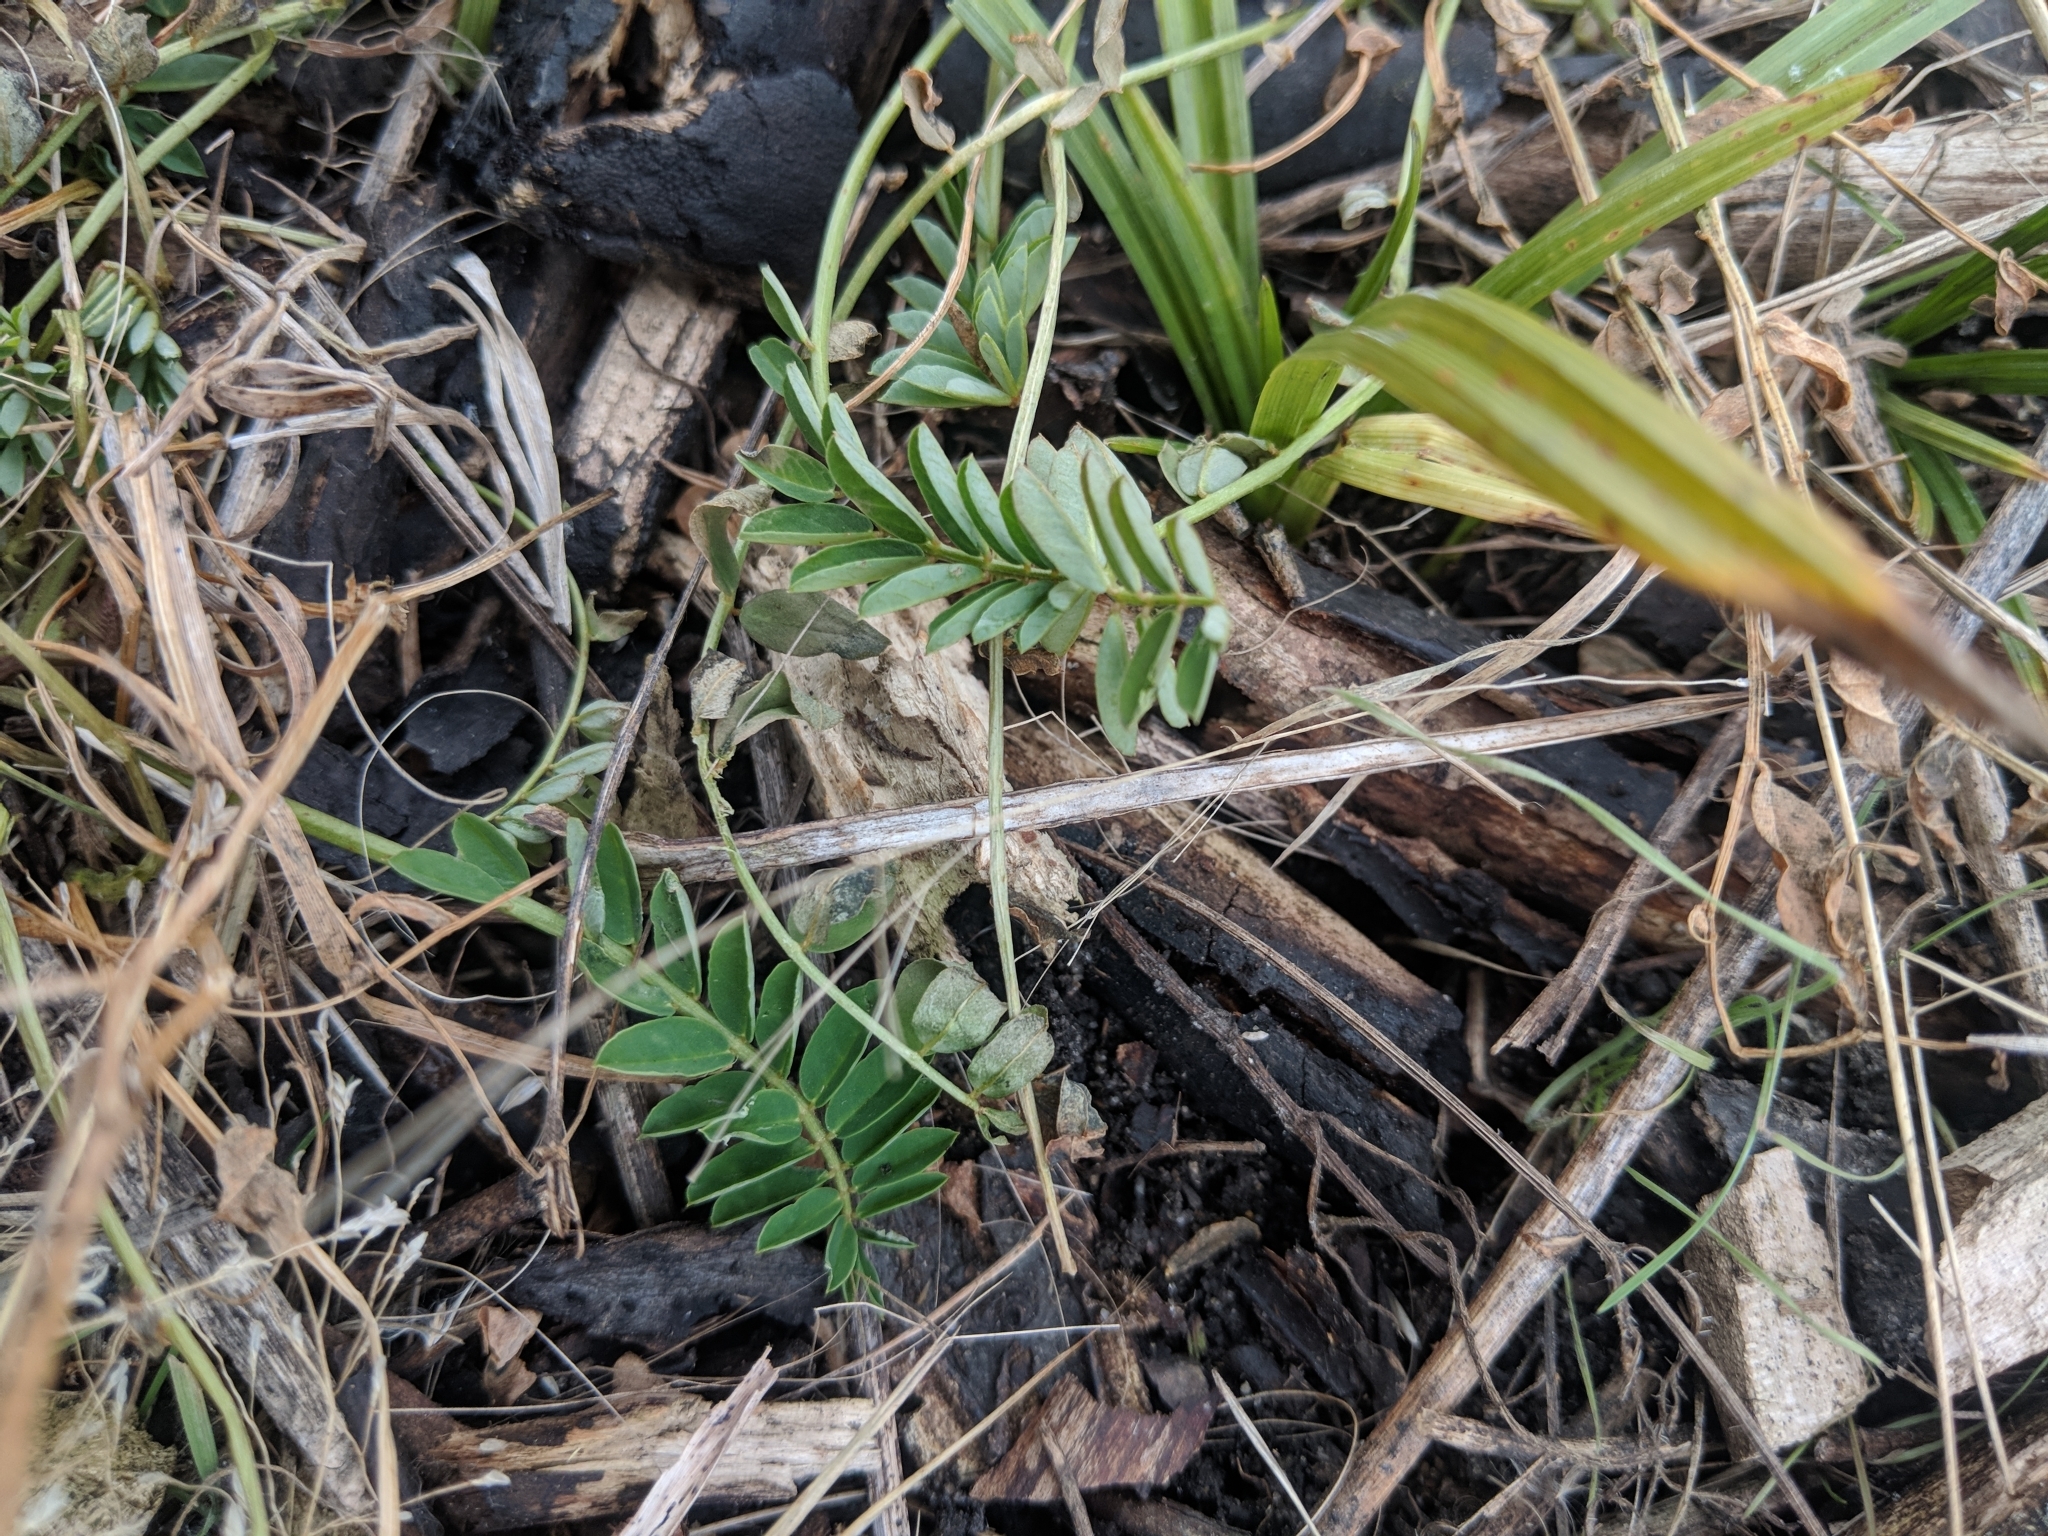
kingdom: Plantae
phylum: Tracheophyta
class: Magnoliopsida
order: Fabales
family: Fabaceae
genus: Coronilla
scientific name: Coronilla varia
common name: Crownvetch
